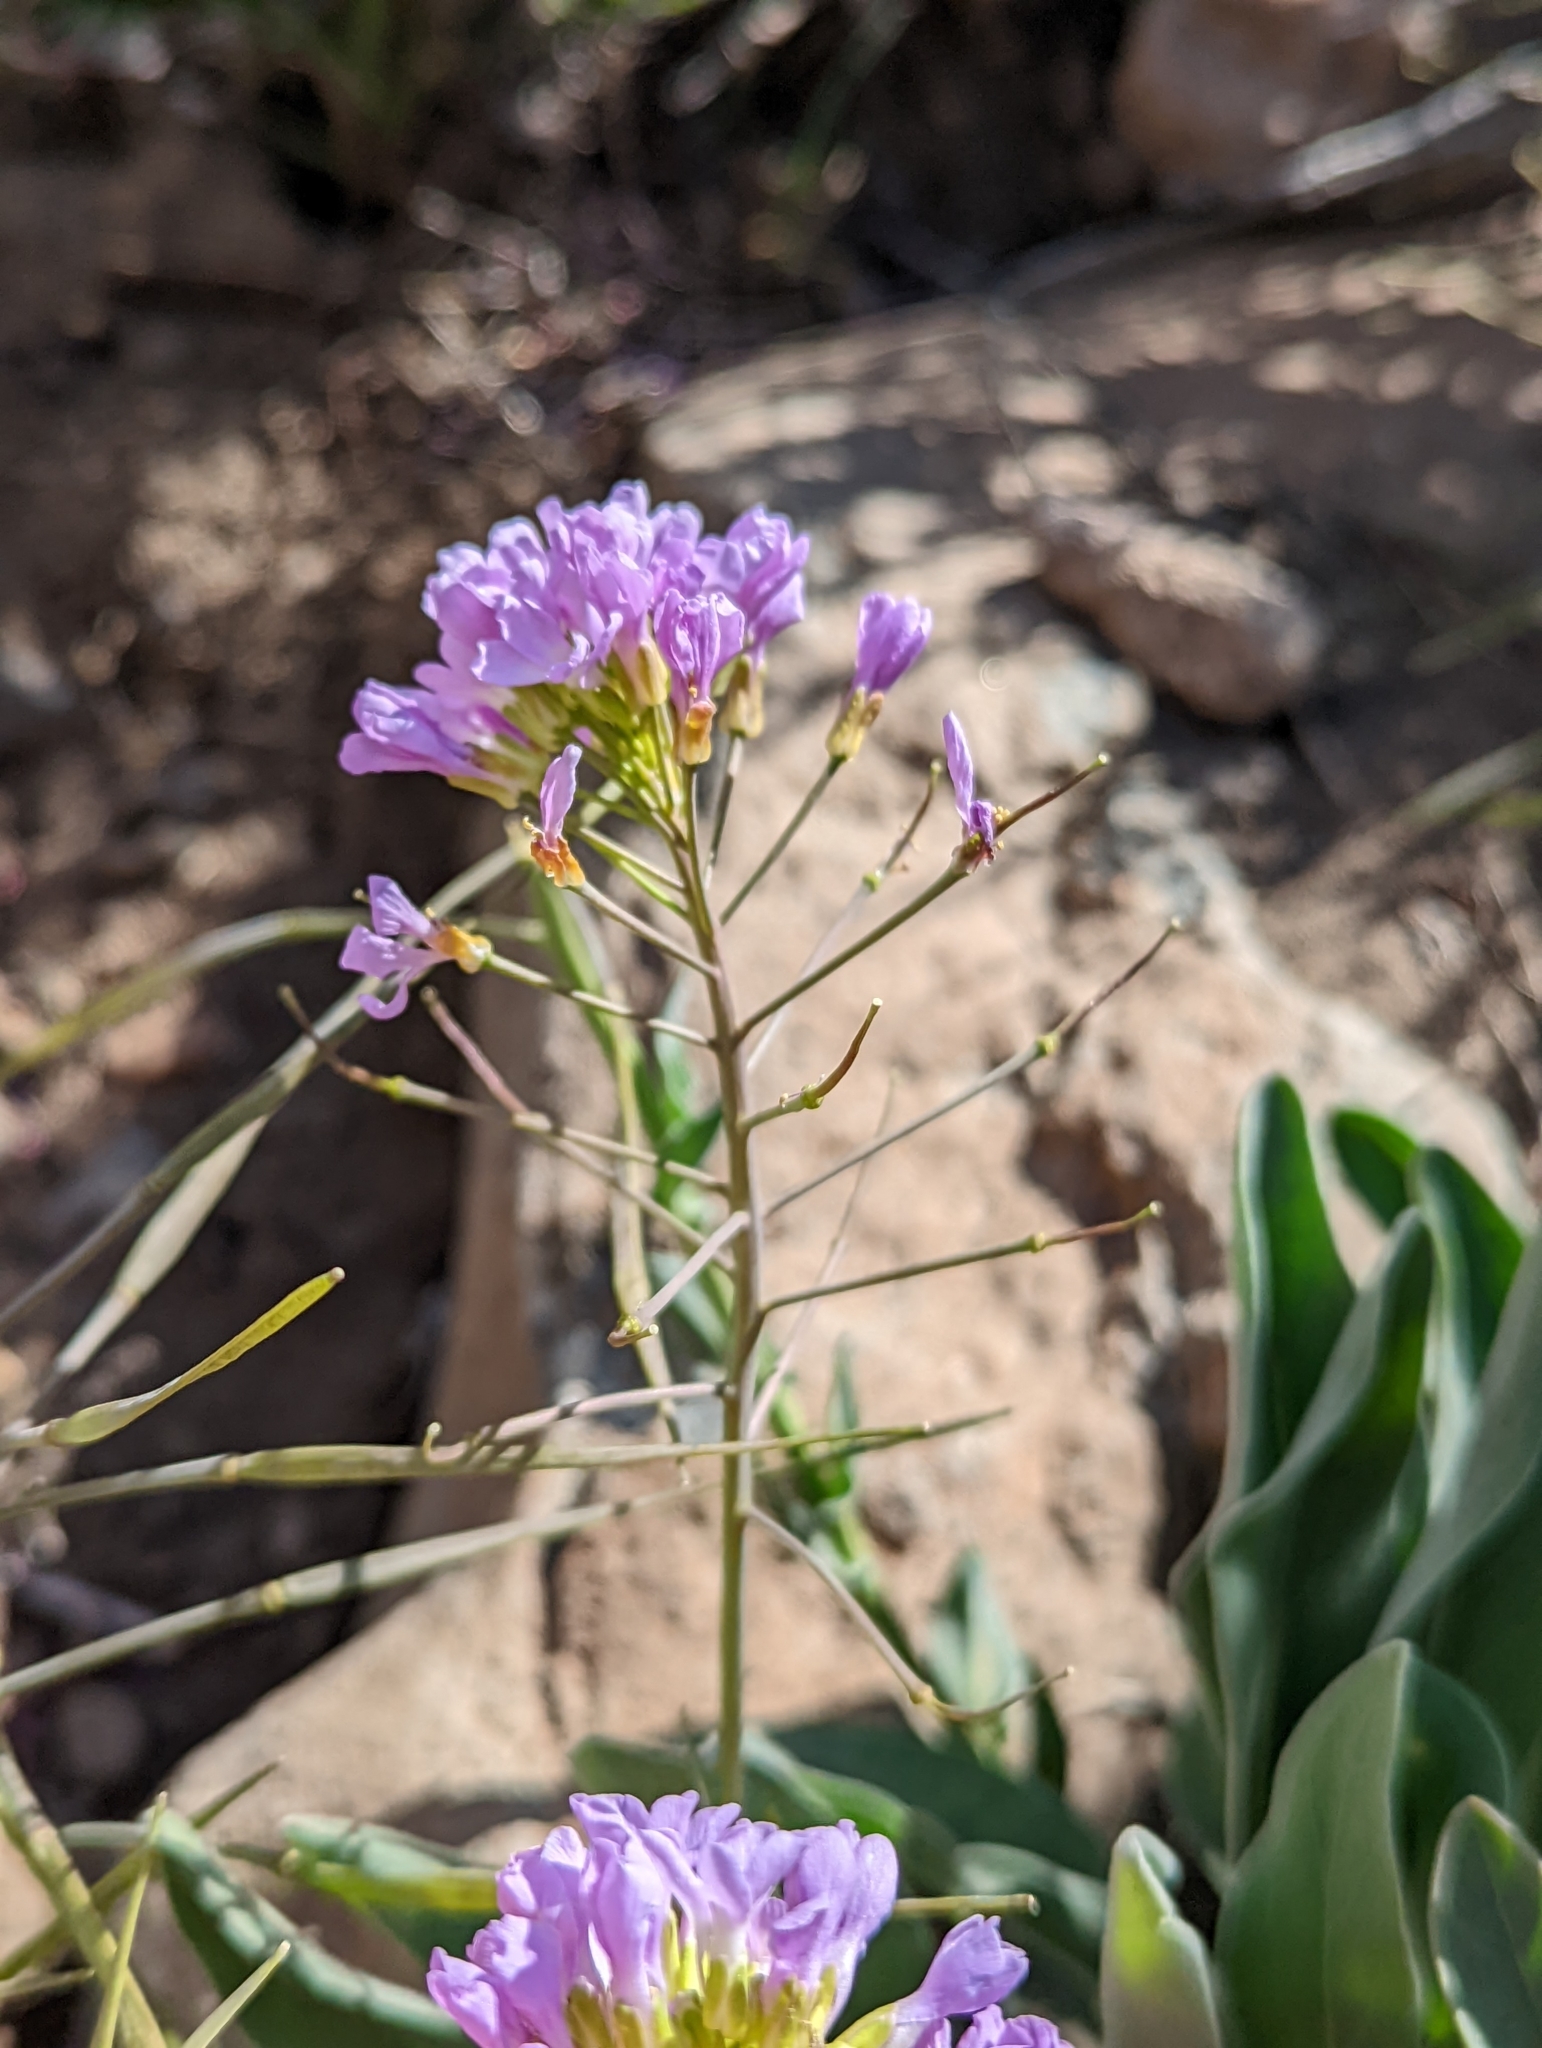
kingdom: Plantae
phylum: Tracheophyta
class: Magnoliopsida
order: Brassicales
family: Brassicaceae
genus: Phoenicaulis
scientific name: Phoenicaulis cheiranthoides
